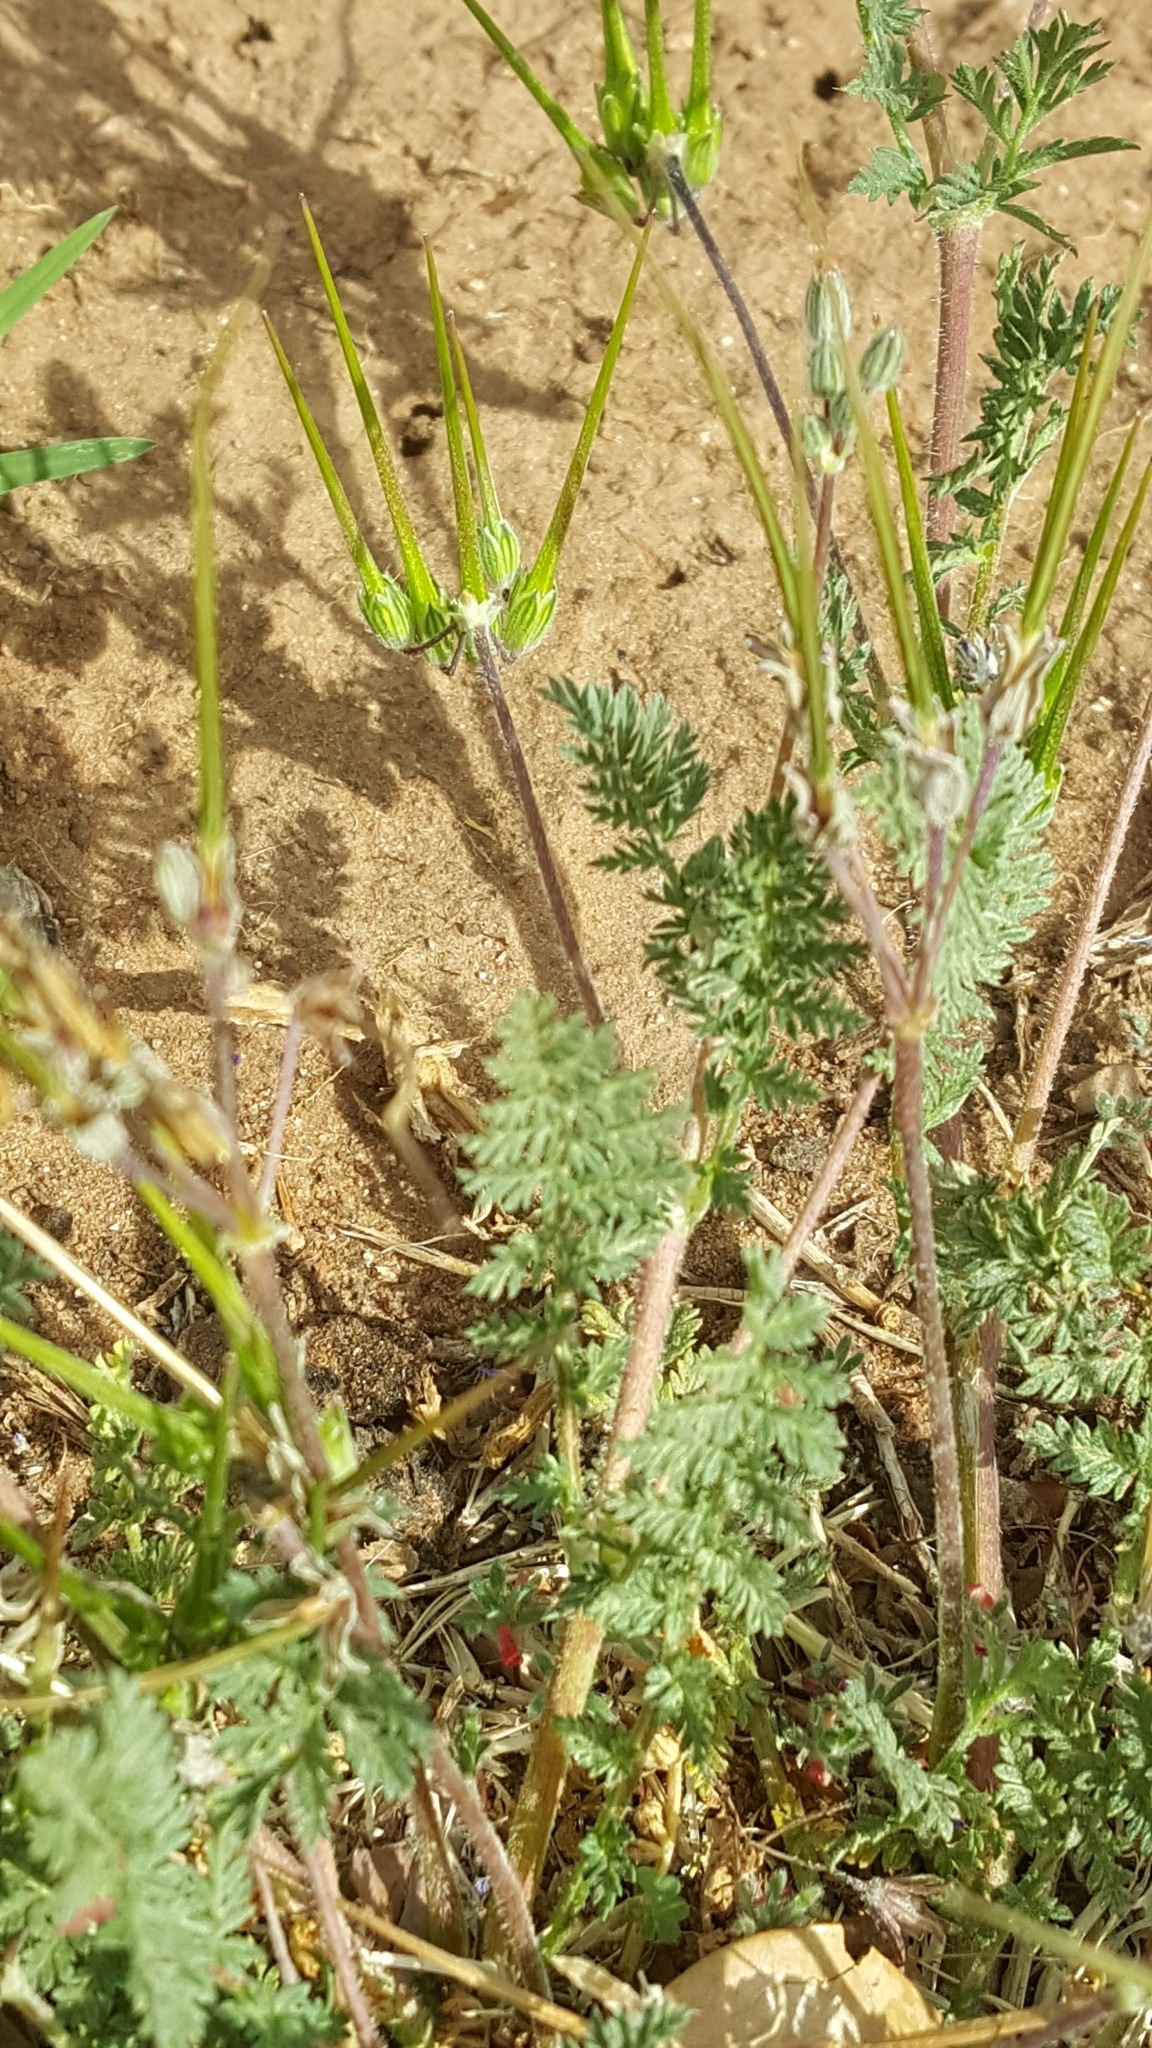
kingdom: Plantae
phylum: Tracheophyta
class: Magnoliopsida
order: Geraniales
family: Geraniaceae
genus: Erodium
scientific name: Erodium cicutarium
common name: Common stork's-bill
